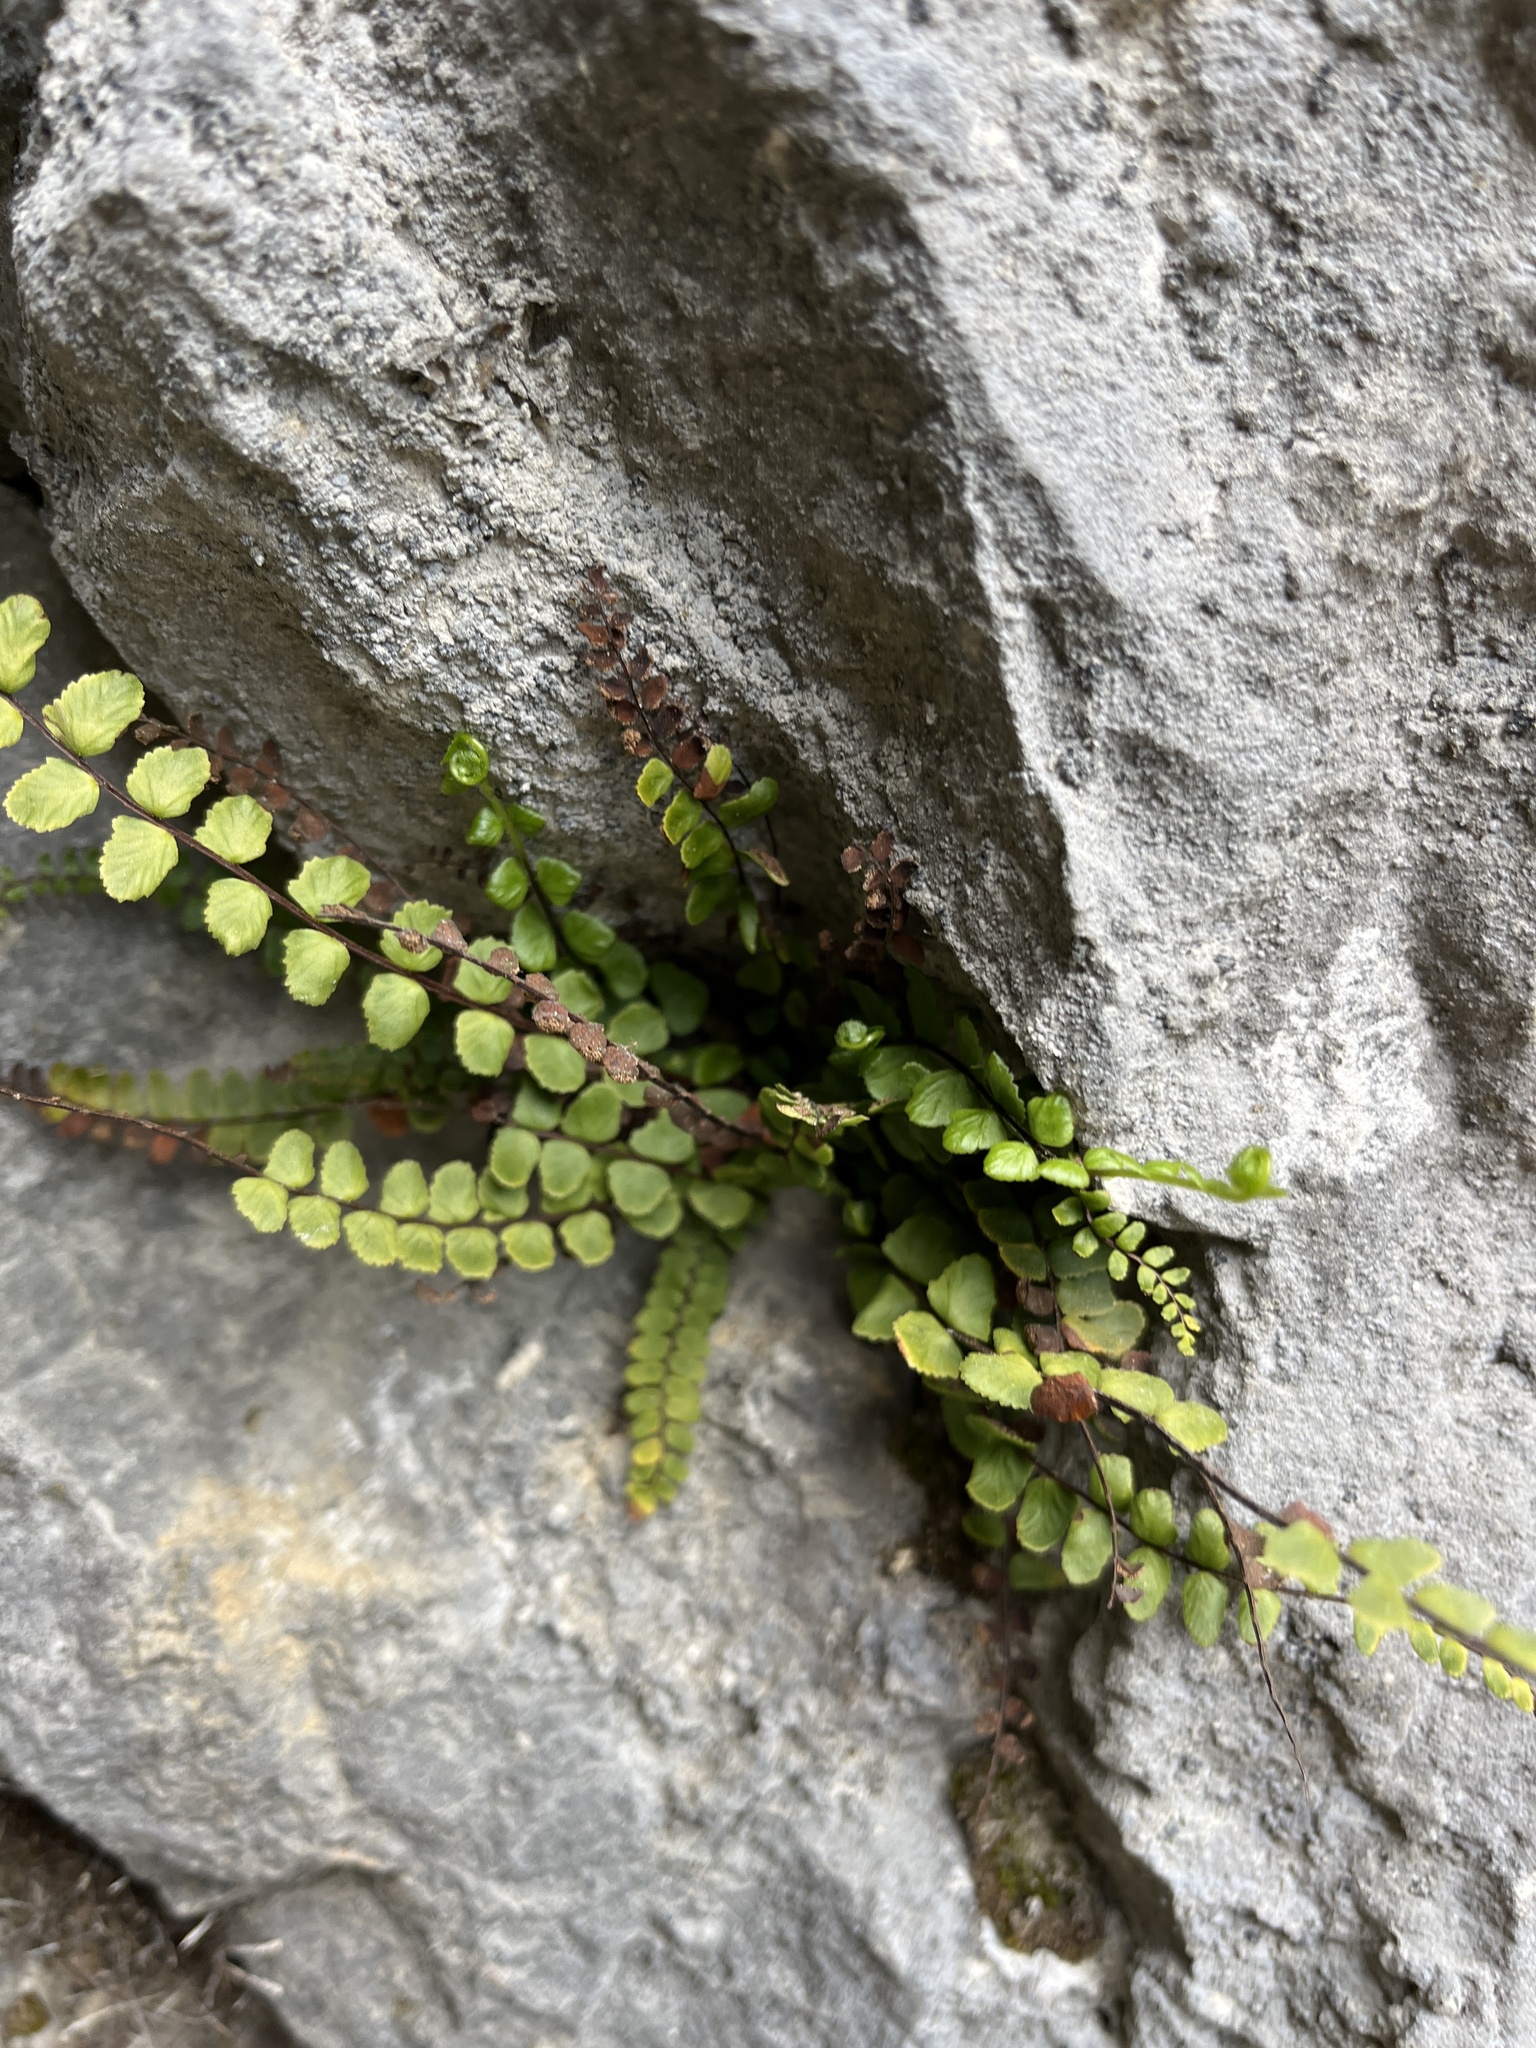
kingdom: Plantae
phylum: Tracheophyta
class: Polypodiopsida
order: Polypodiales
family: Aspleniaceae
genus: Asplenium
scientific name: Asplenium trichomanes
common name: Maidenhair spleenwort
